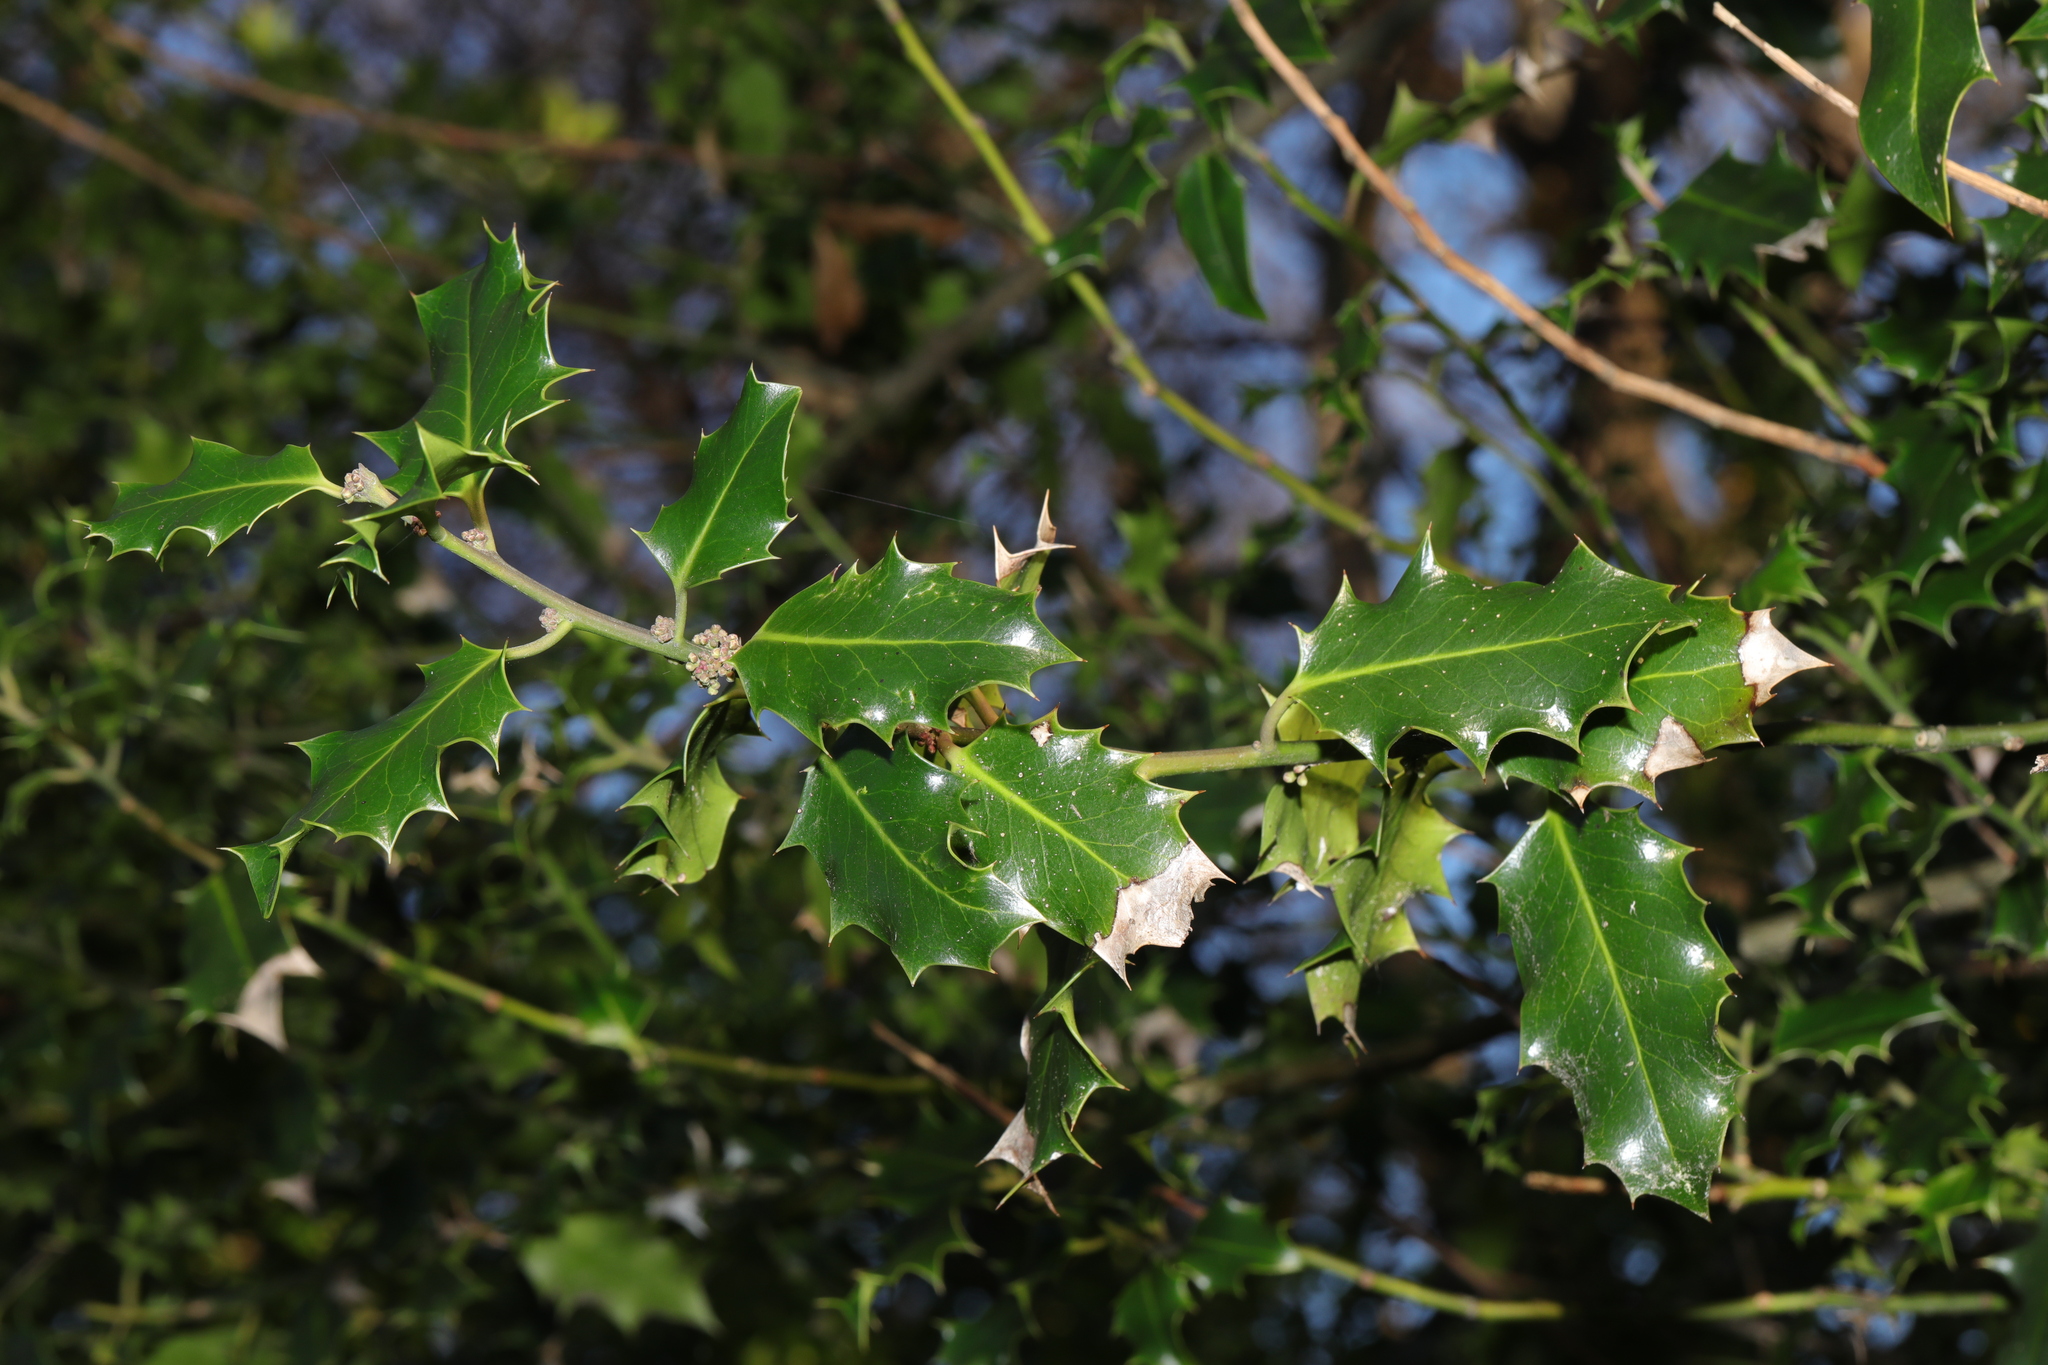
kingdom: Plantae
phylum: Tracheophyta
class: Magnoliopsida
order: Aquifoliales
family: Aquifoliaceae
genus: Ilex
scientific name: Ilex aquifolium
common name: English holly
